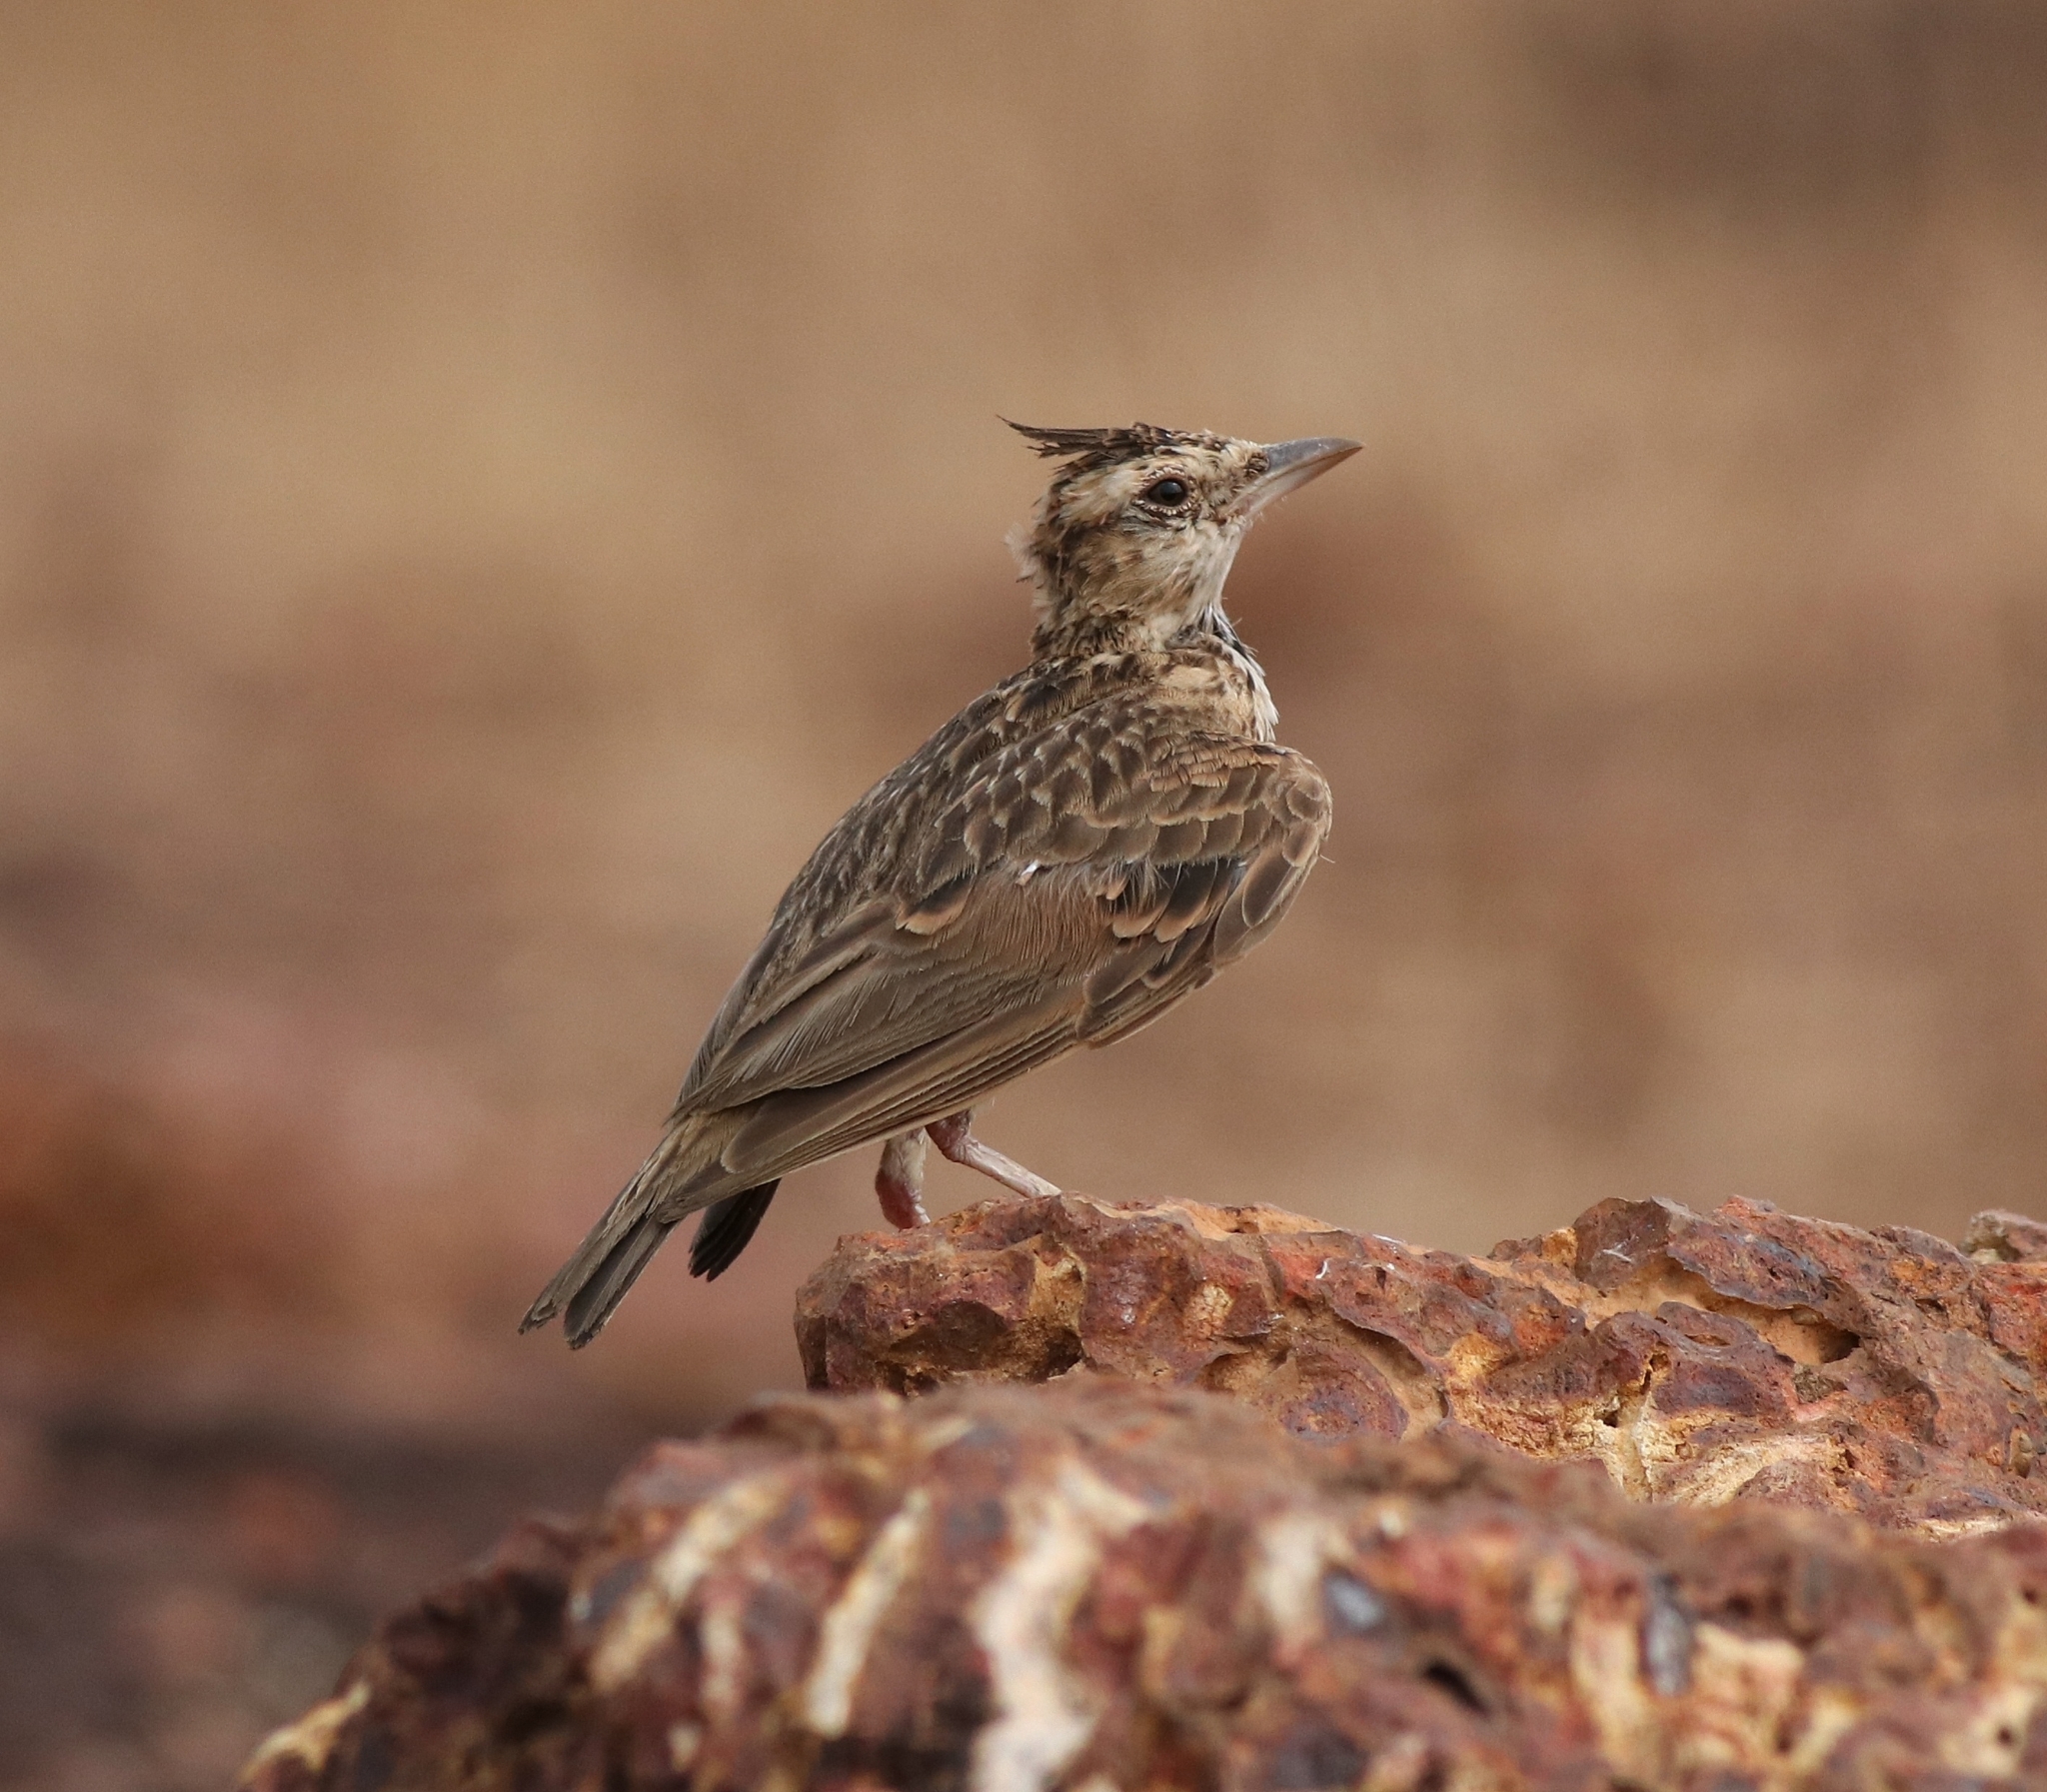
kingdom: Animalia
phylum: Chordata
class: Aves
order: Passeriformes
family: Alaudidae
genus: Galerida
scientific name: Galerida malabarica
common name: Malabar lark
